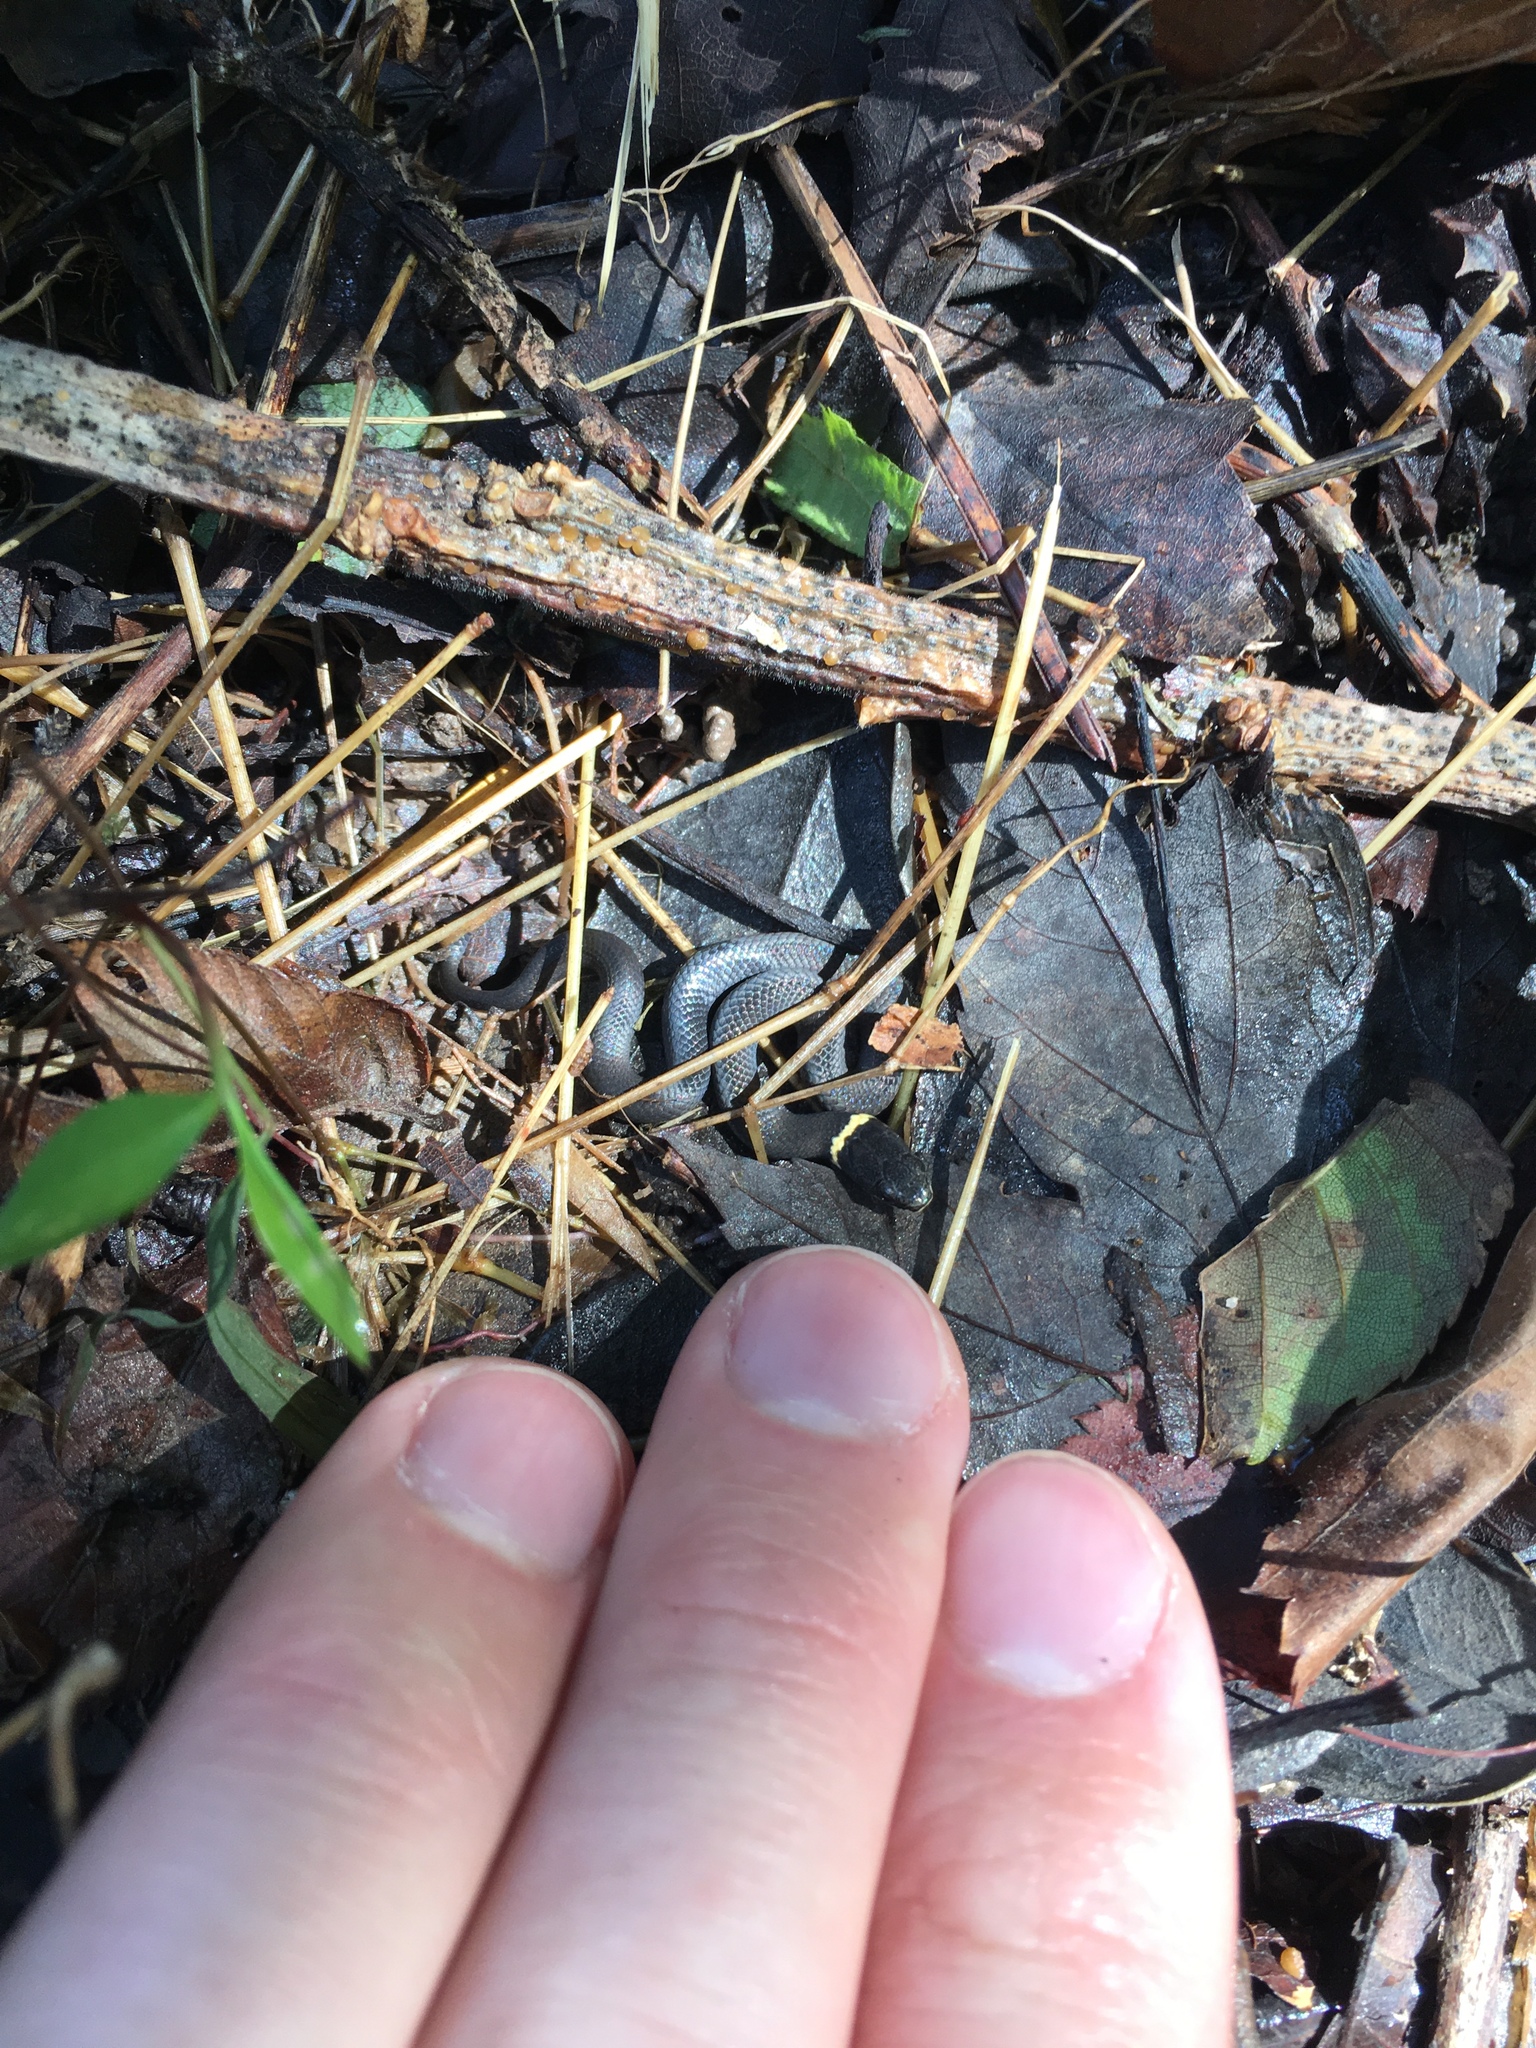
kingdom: Animalia
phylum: Chordata
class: Squamata
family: Colubridae
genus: Diadophis
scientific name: Diadophis punctatus
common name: Ringneck snake
